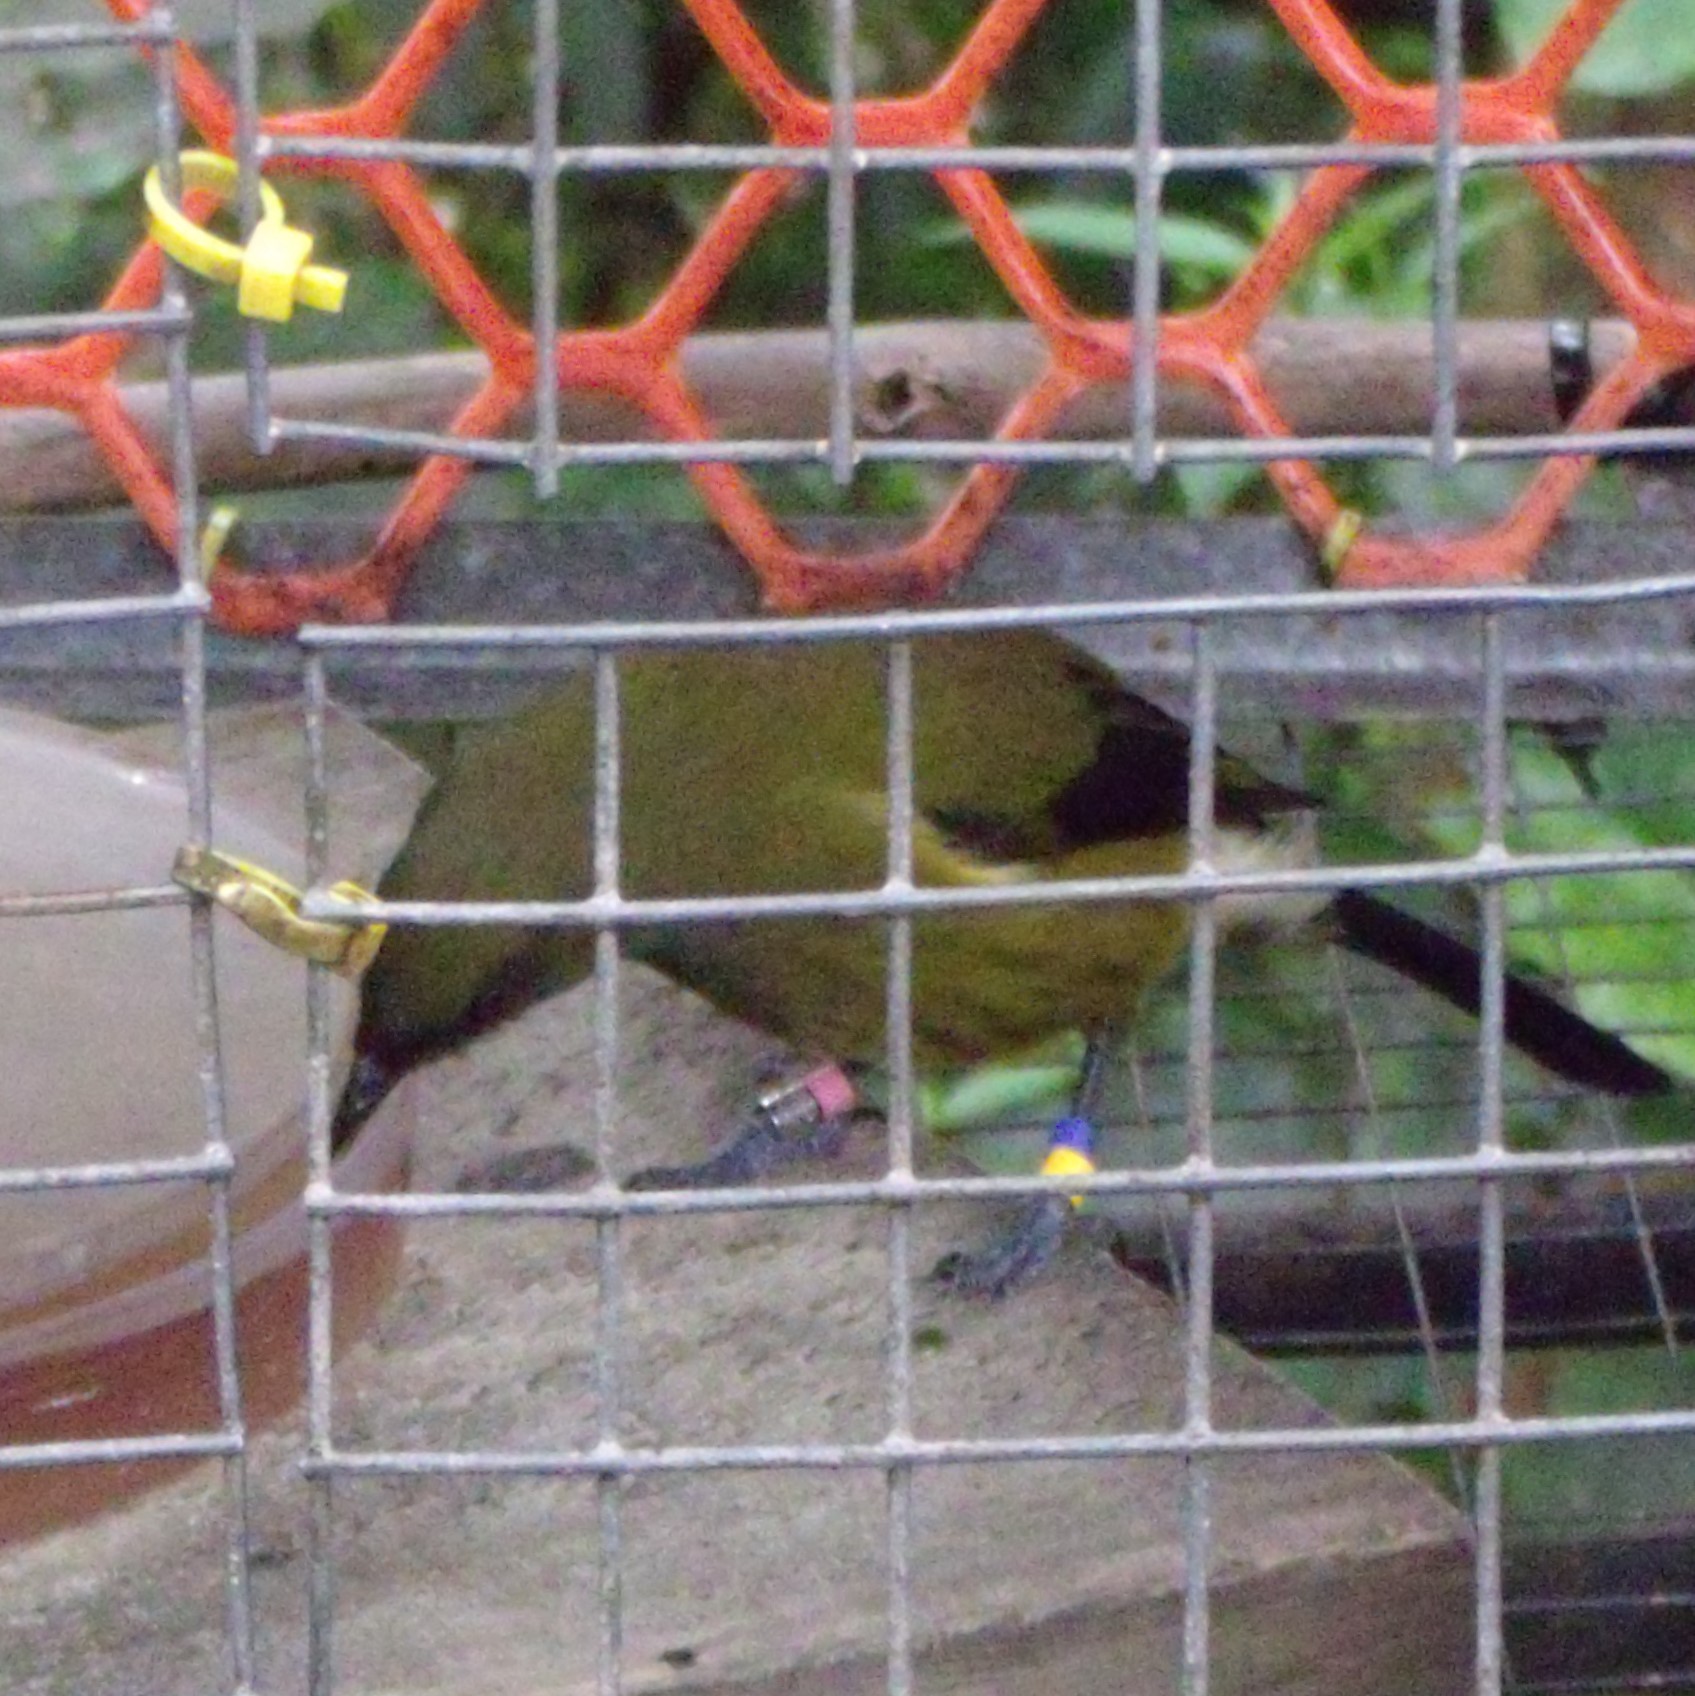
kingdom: Animalia
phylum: Chordata
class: Aves
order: Passeriformes
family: Meliphagidae
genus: Anthornis
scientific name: Anthornis melanura
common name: New zealand bellbird
